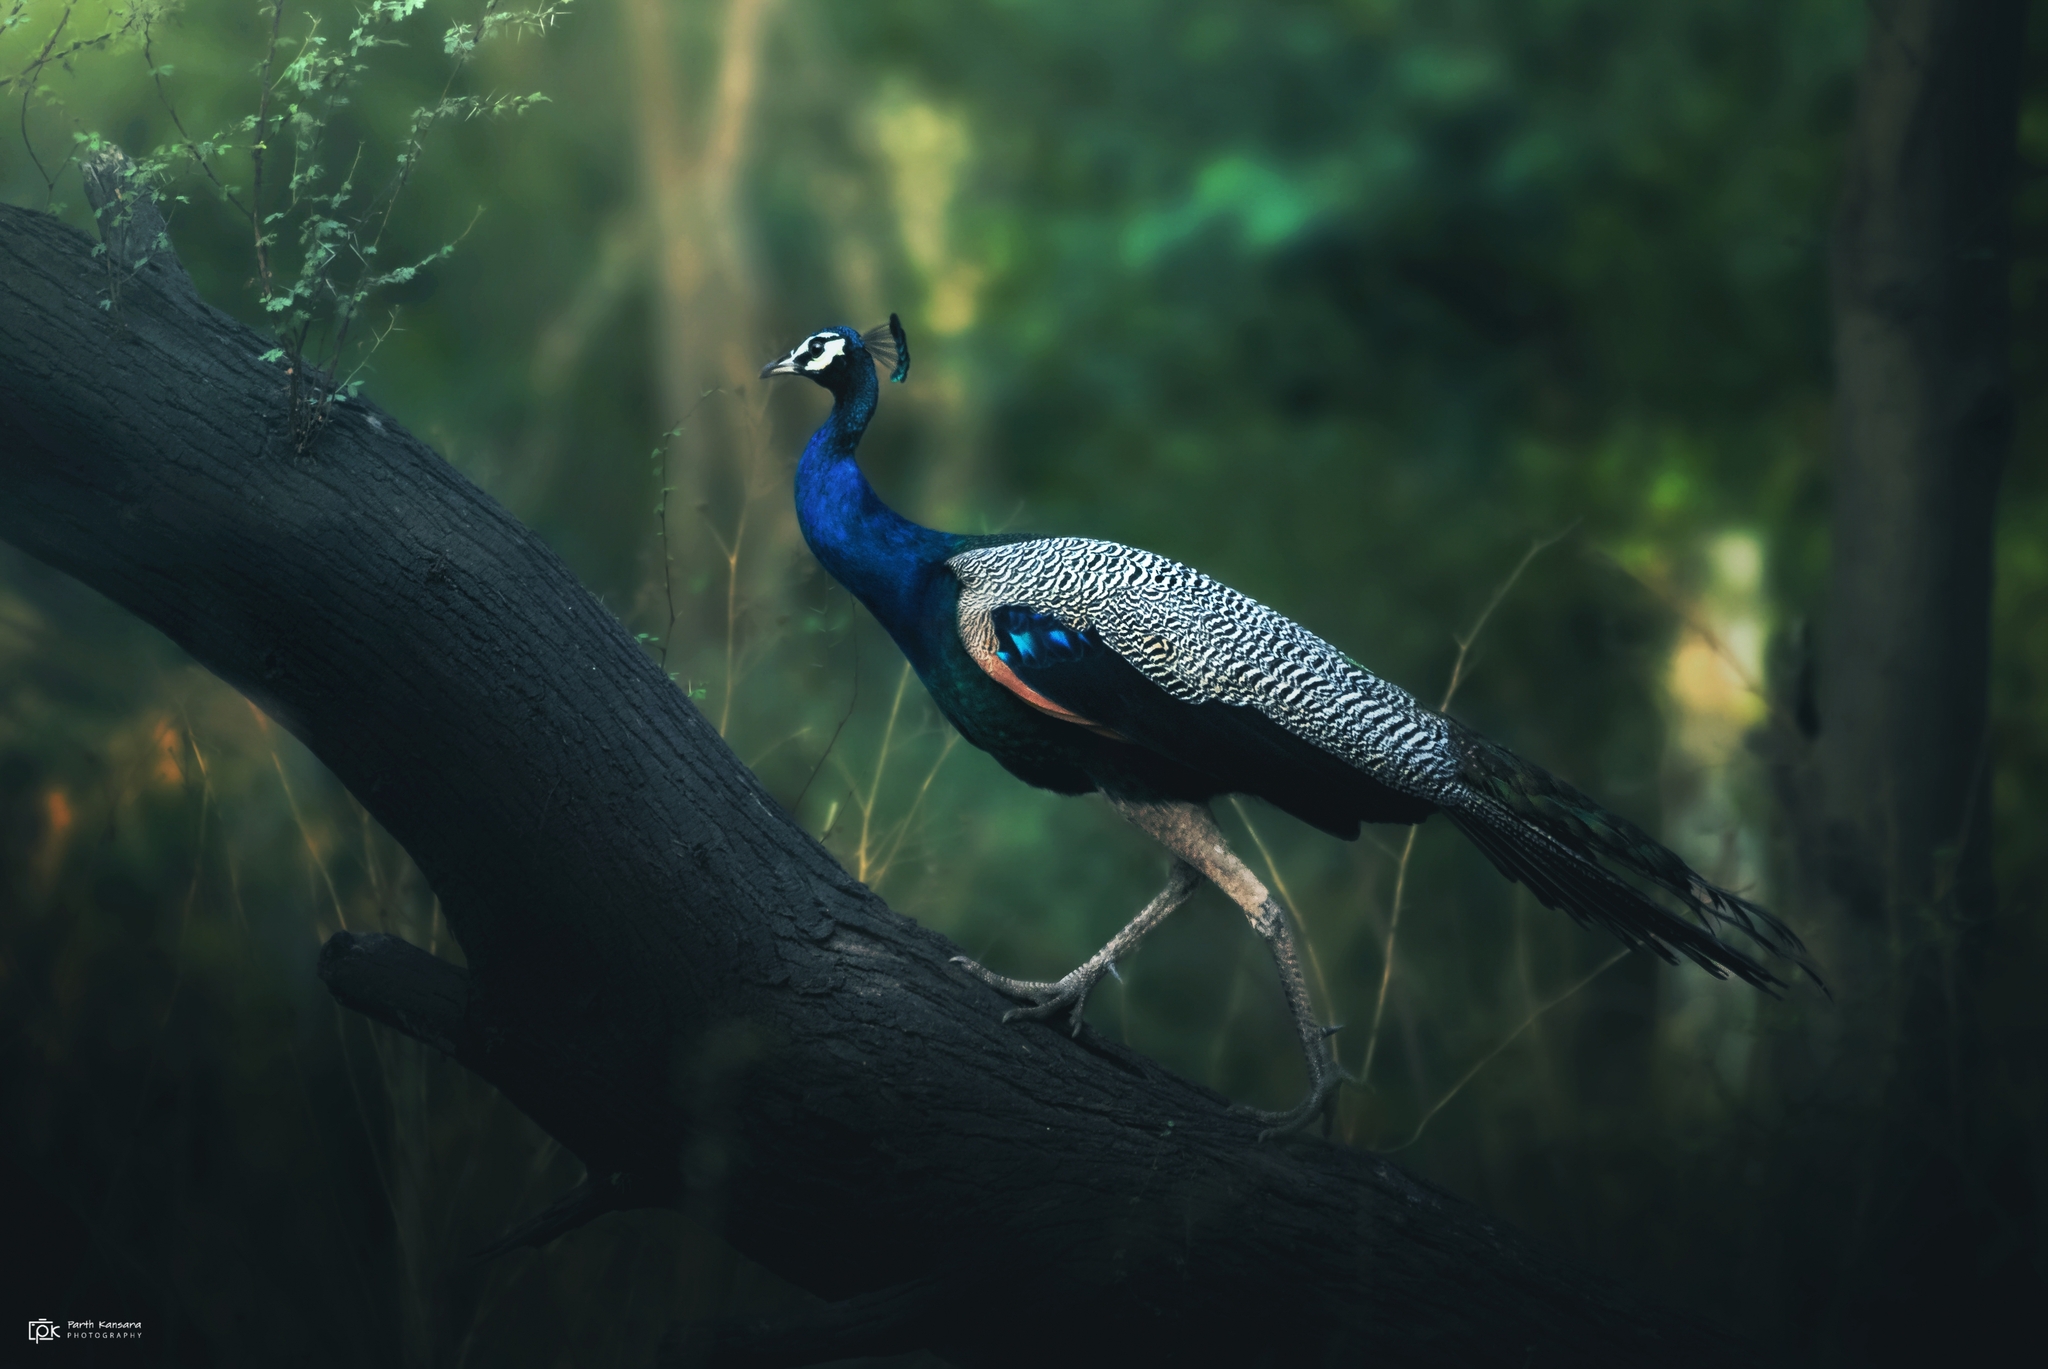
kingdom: Animalia
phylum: Chordata
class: Aves
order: Galliformes
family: Phasianidae
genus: Pavo
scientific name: Pavo cristatus
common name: Indian peafowl
